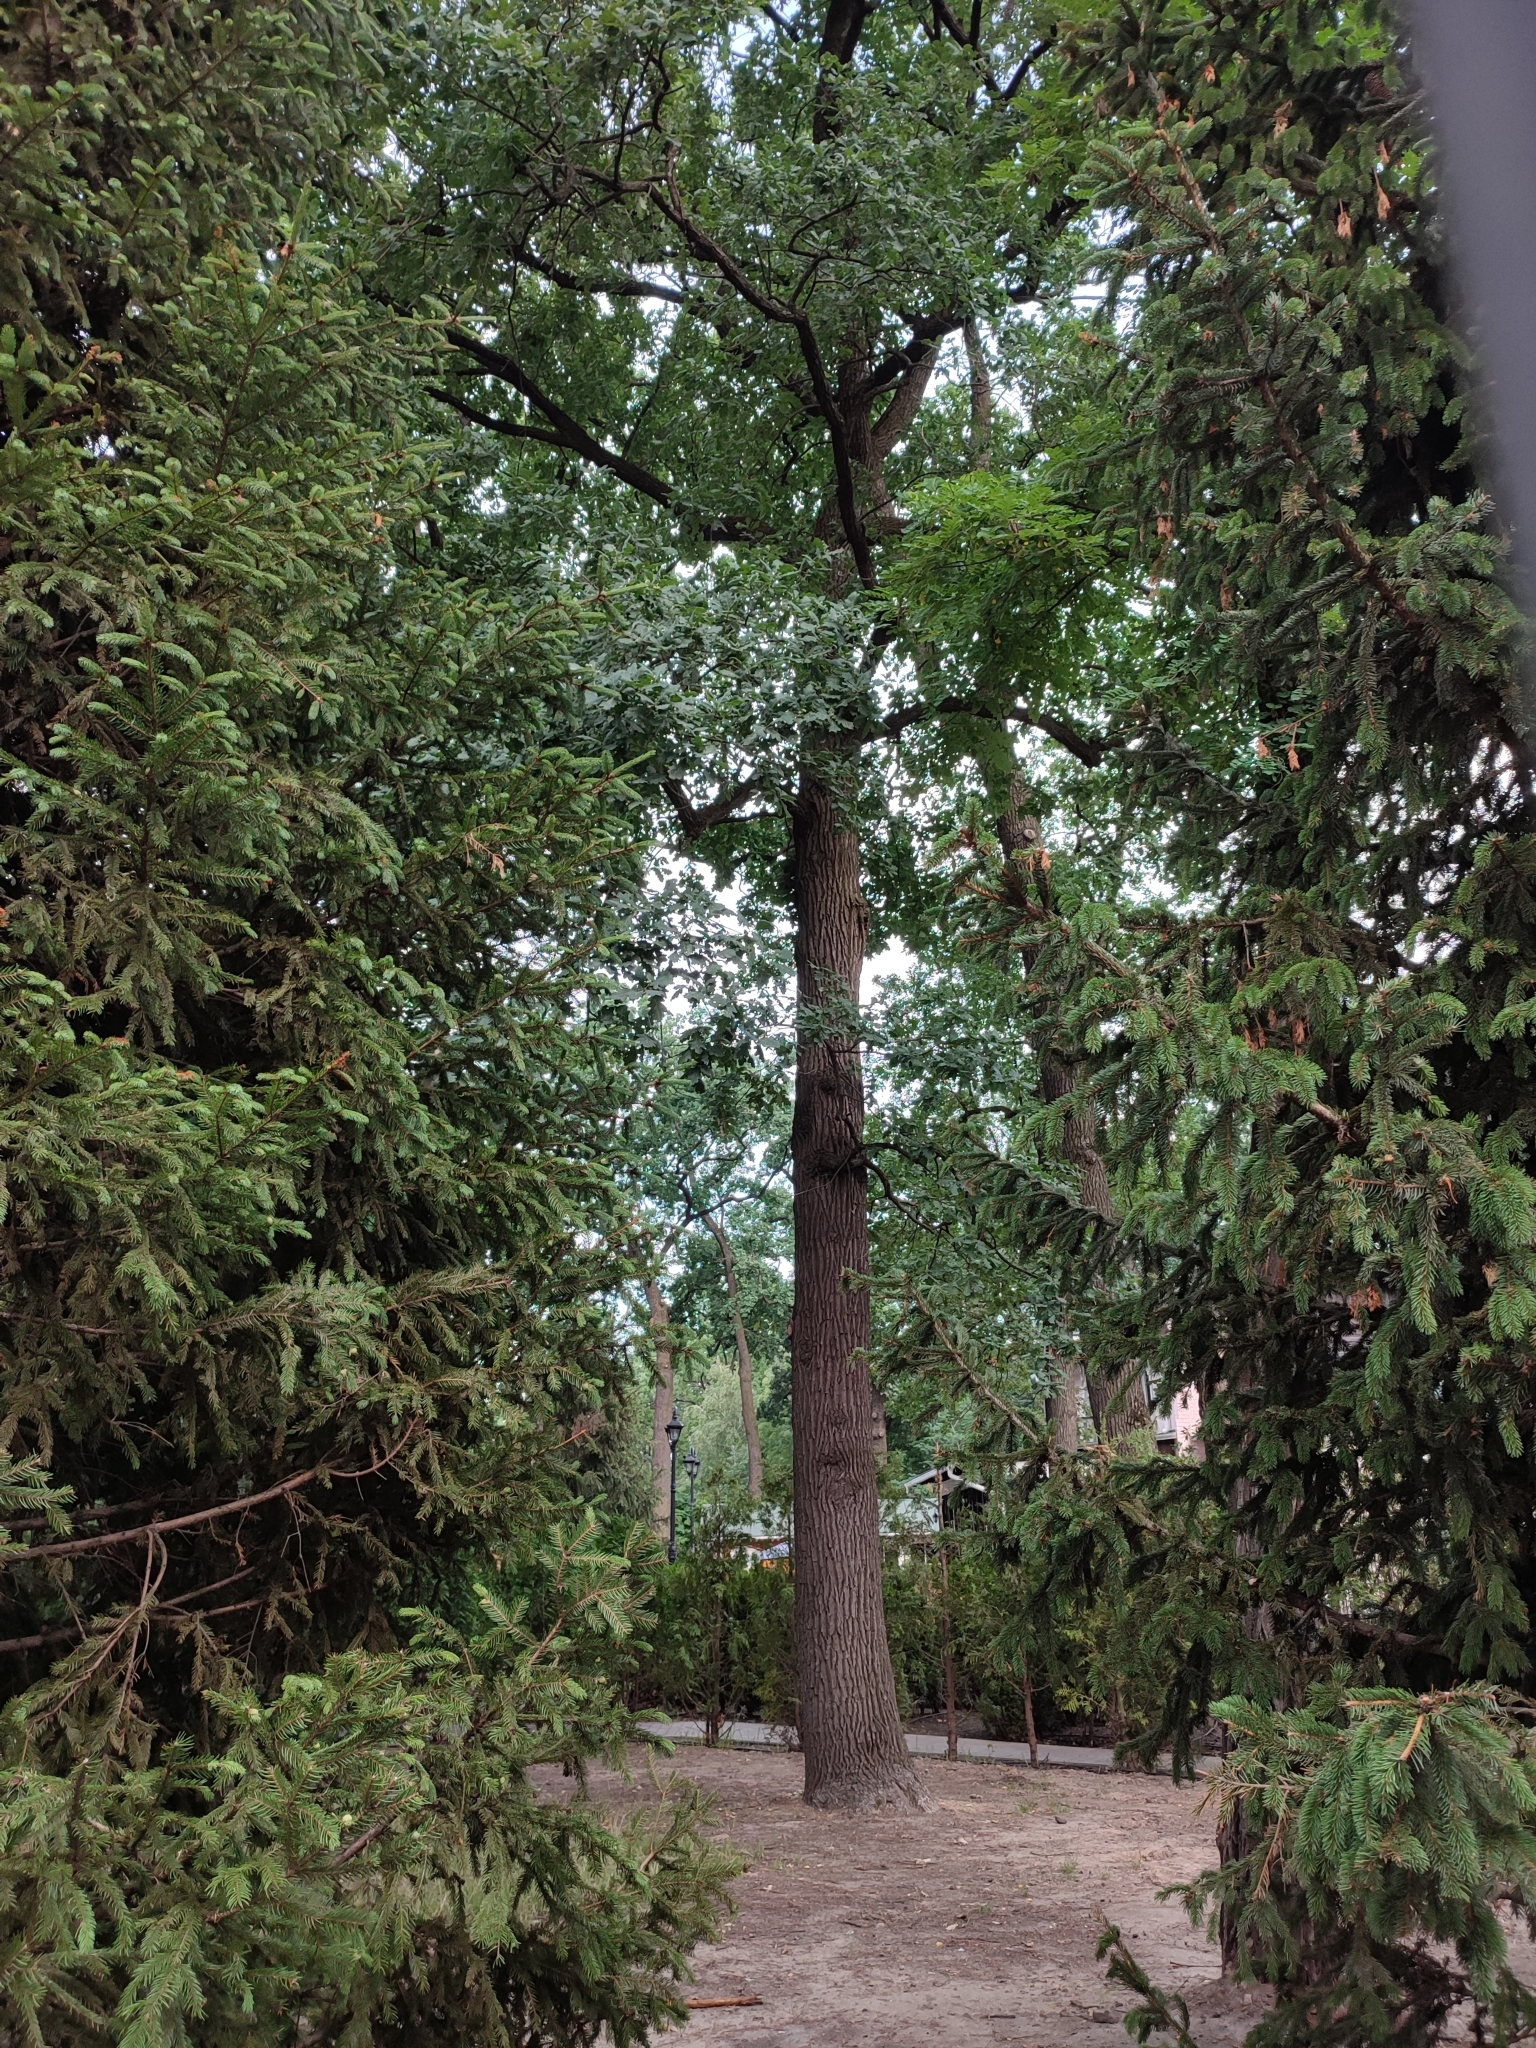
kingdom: Plantae
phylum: Tracheophyta
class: Magnoliopsida
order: Fagales
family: Fagaceae
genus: Quercus
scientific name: Quercus robur
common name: Pedunculate oak
